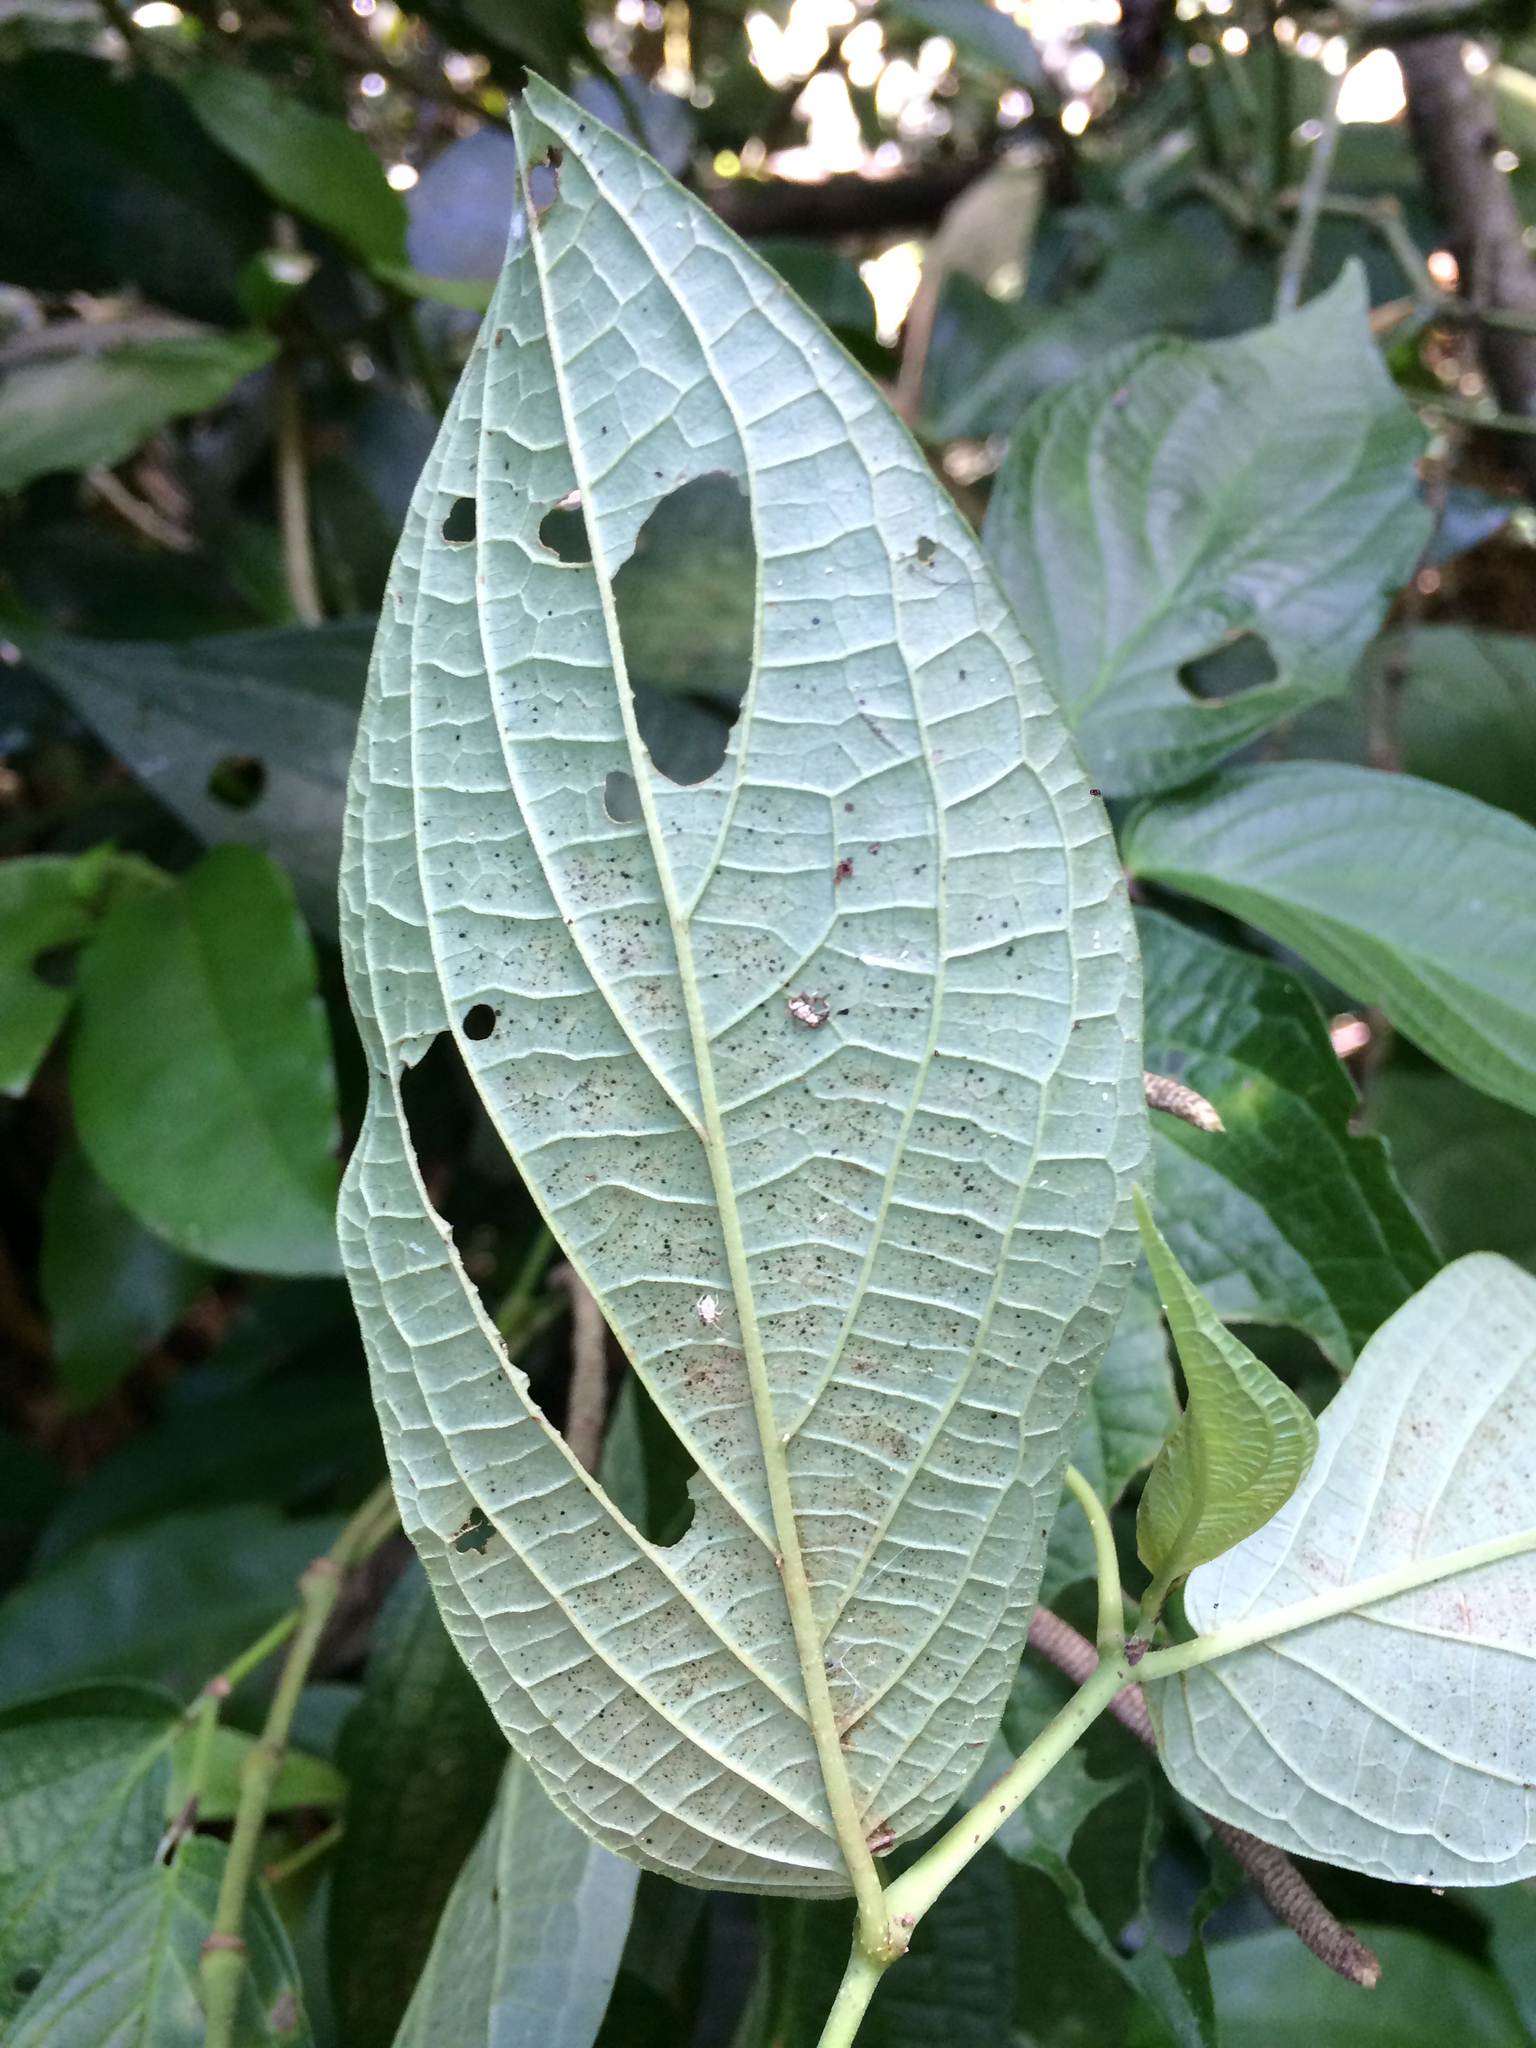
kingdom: Plantae
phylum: Tracheophyta
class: Magnoliopsida
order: Piperales
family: Piperaceae
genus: Piper
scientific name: Piper gaudichaudianum
